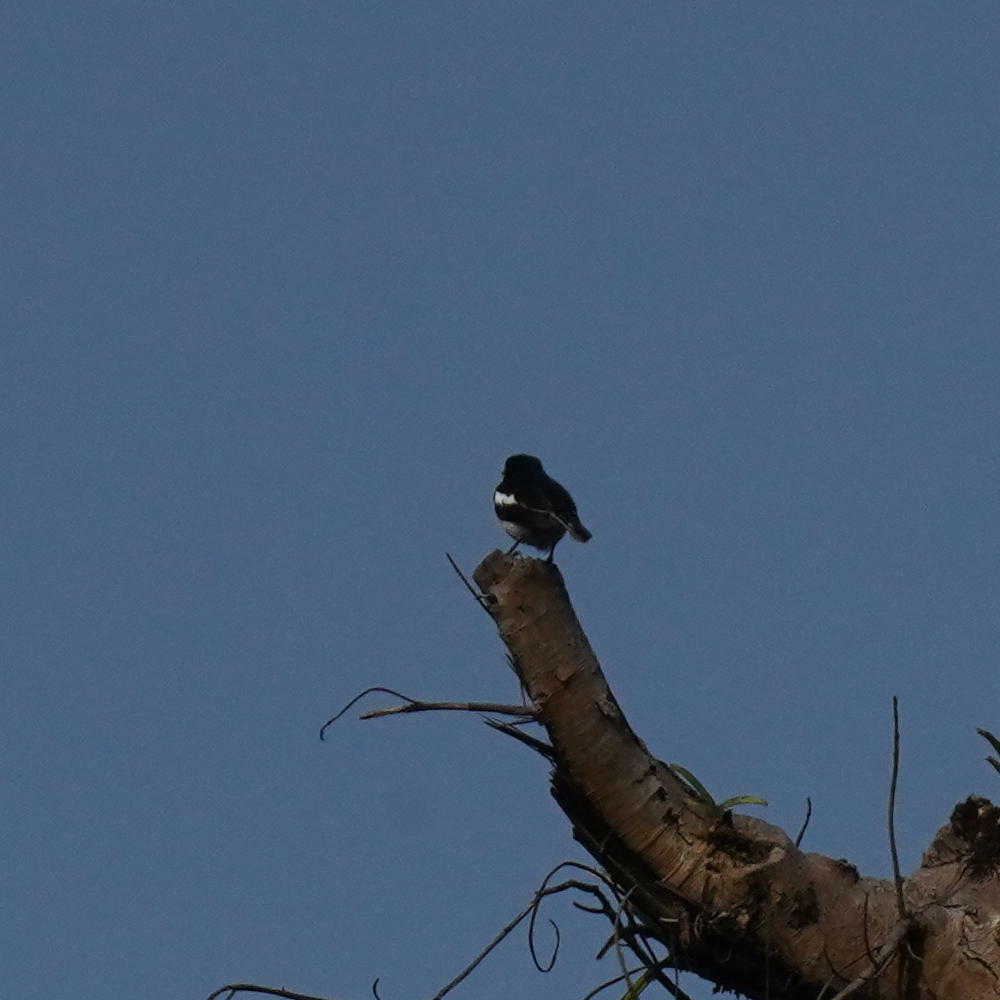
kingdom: Animalia
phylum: Chordata
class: Aves
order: Passeriformes
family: Muscicapidae
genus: Copsychus
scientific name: Copsychus saularis
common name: Oriental magpie-robin
